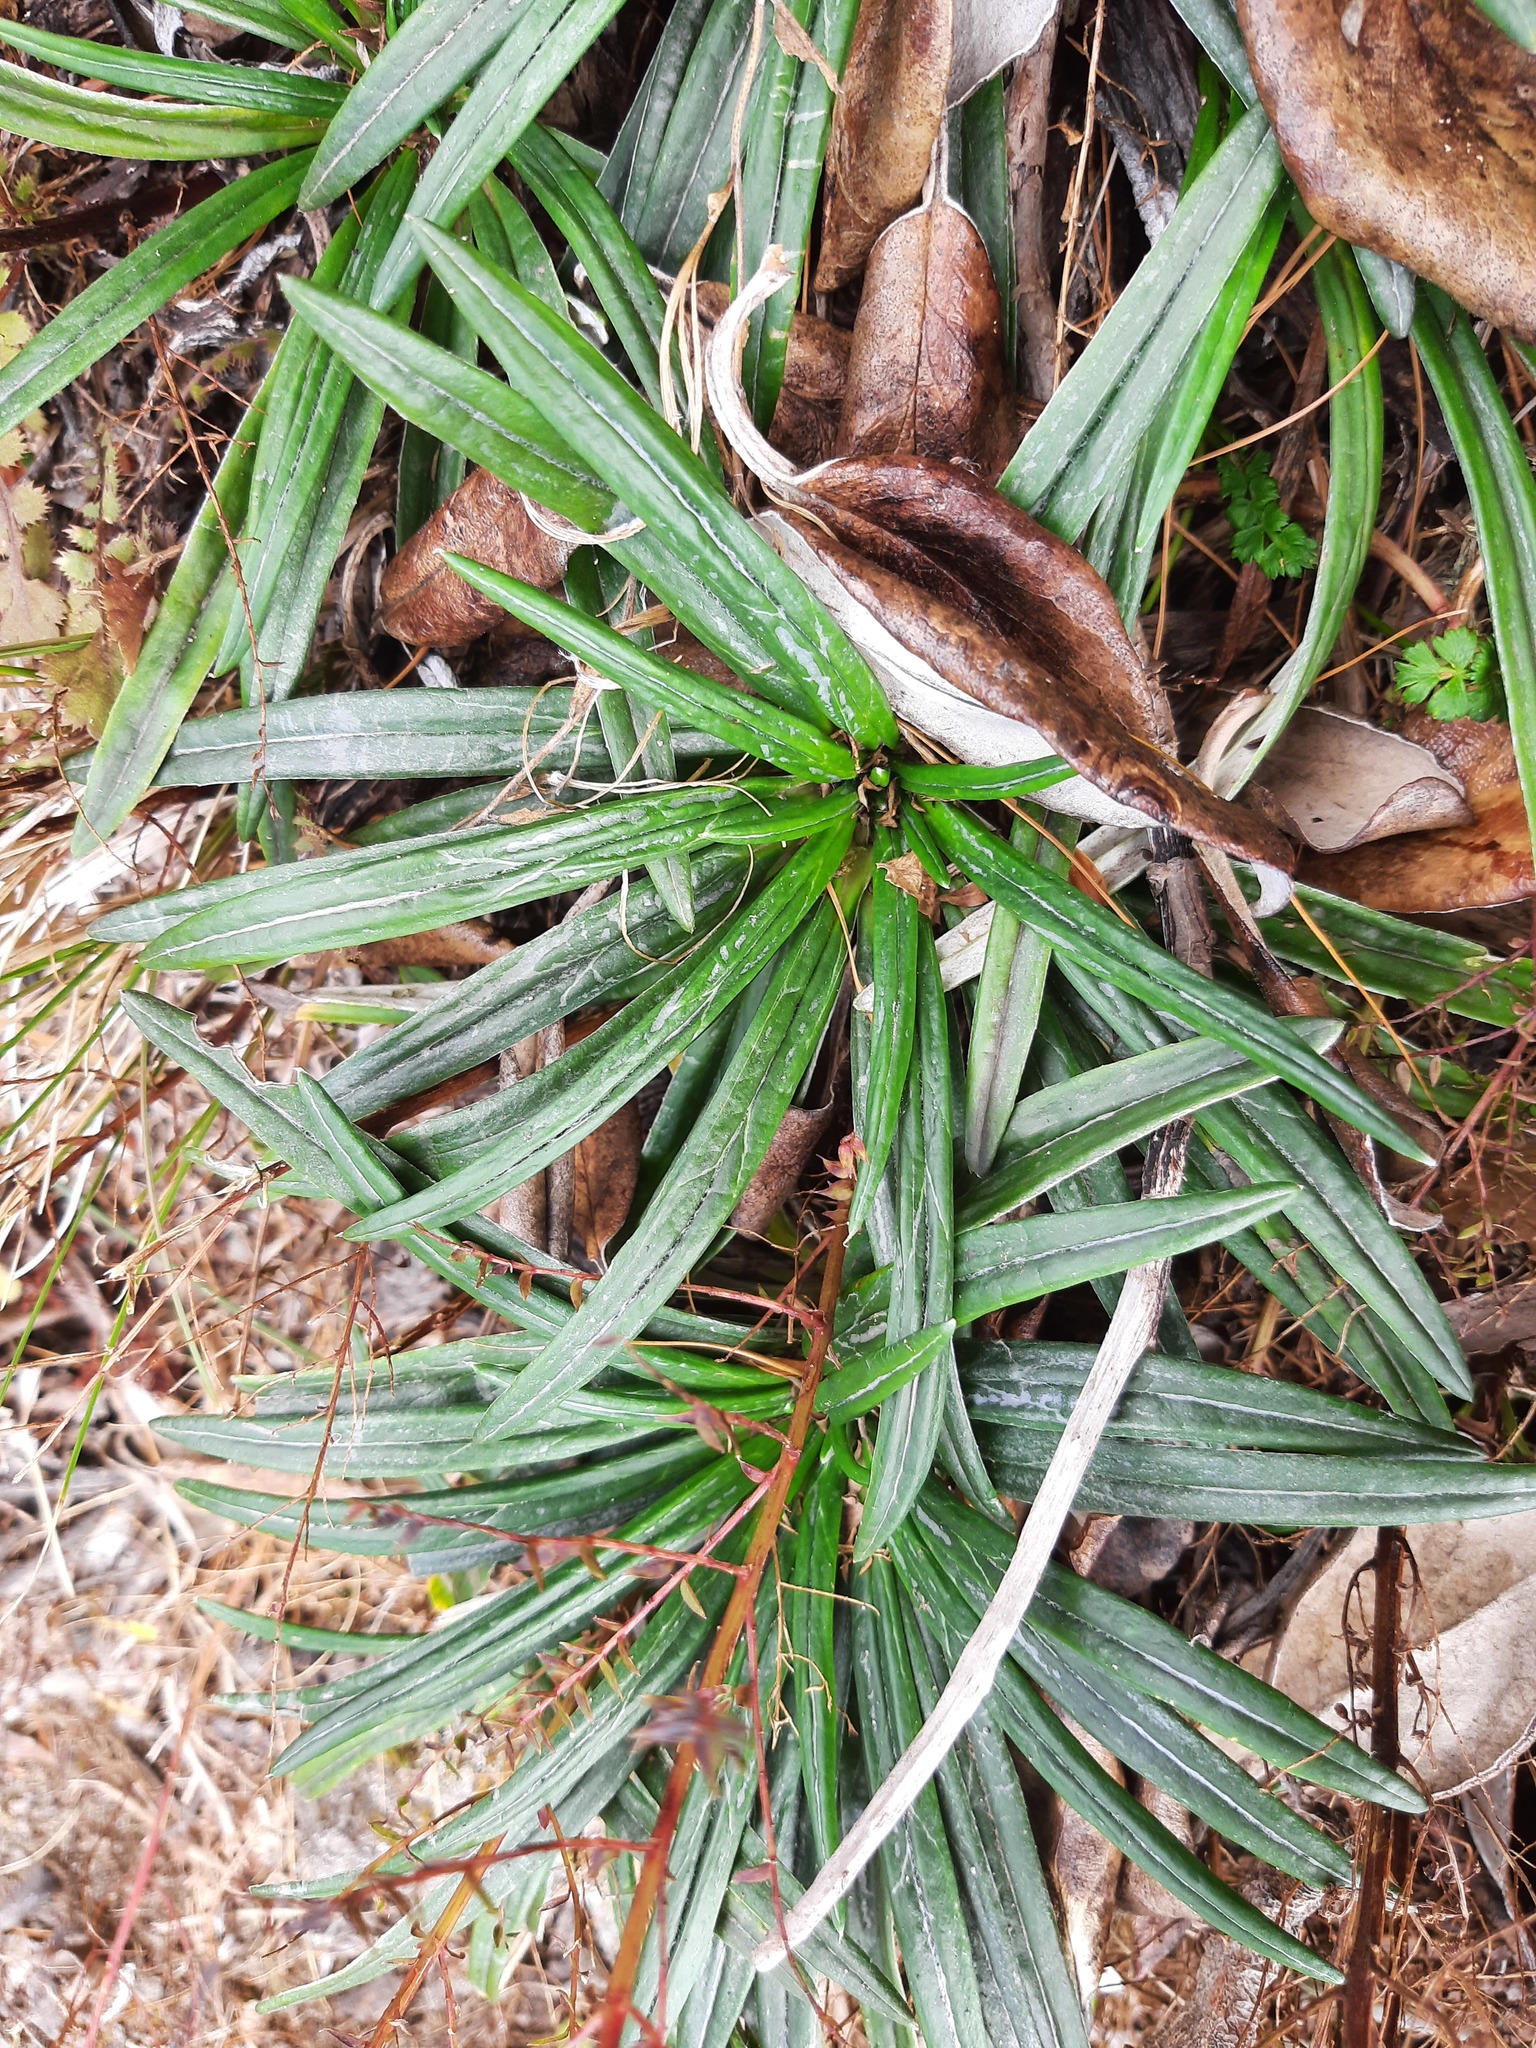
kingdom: Plantae
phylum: Tracheophyta
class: Magnoliopsida
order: Asterales
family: Asteraceae
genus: Celmisia
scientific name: Celmisia major
